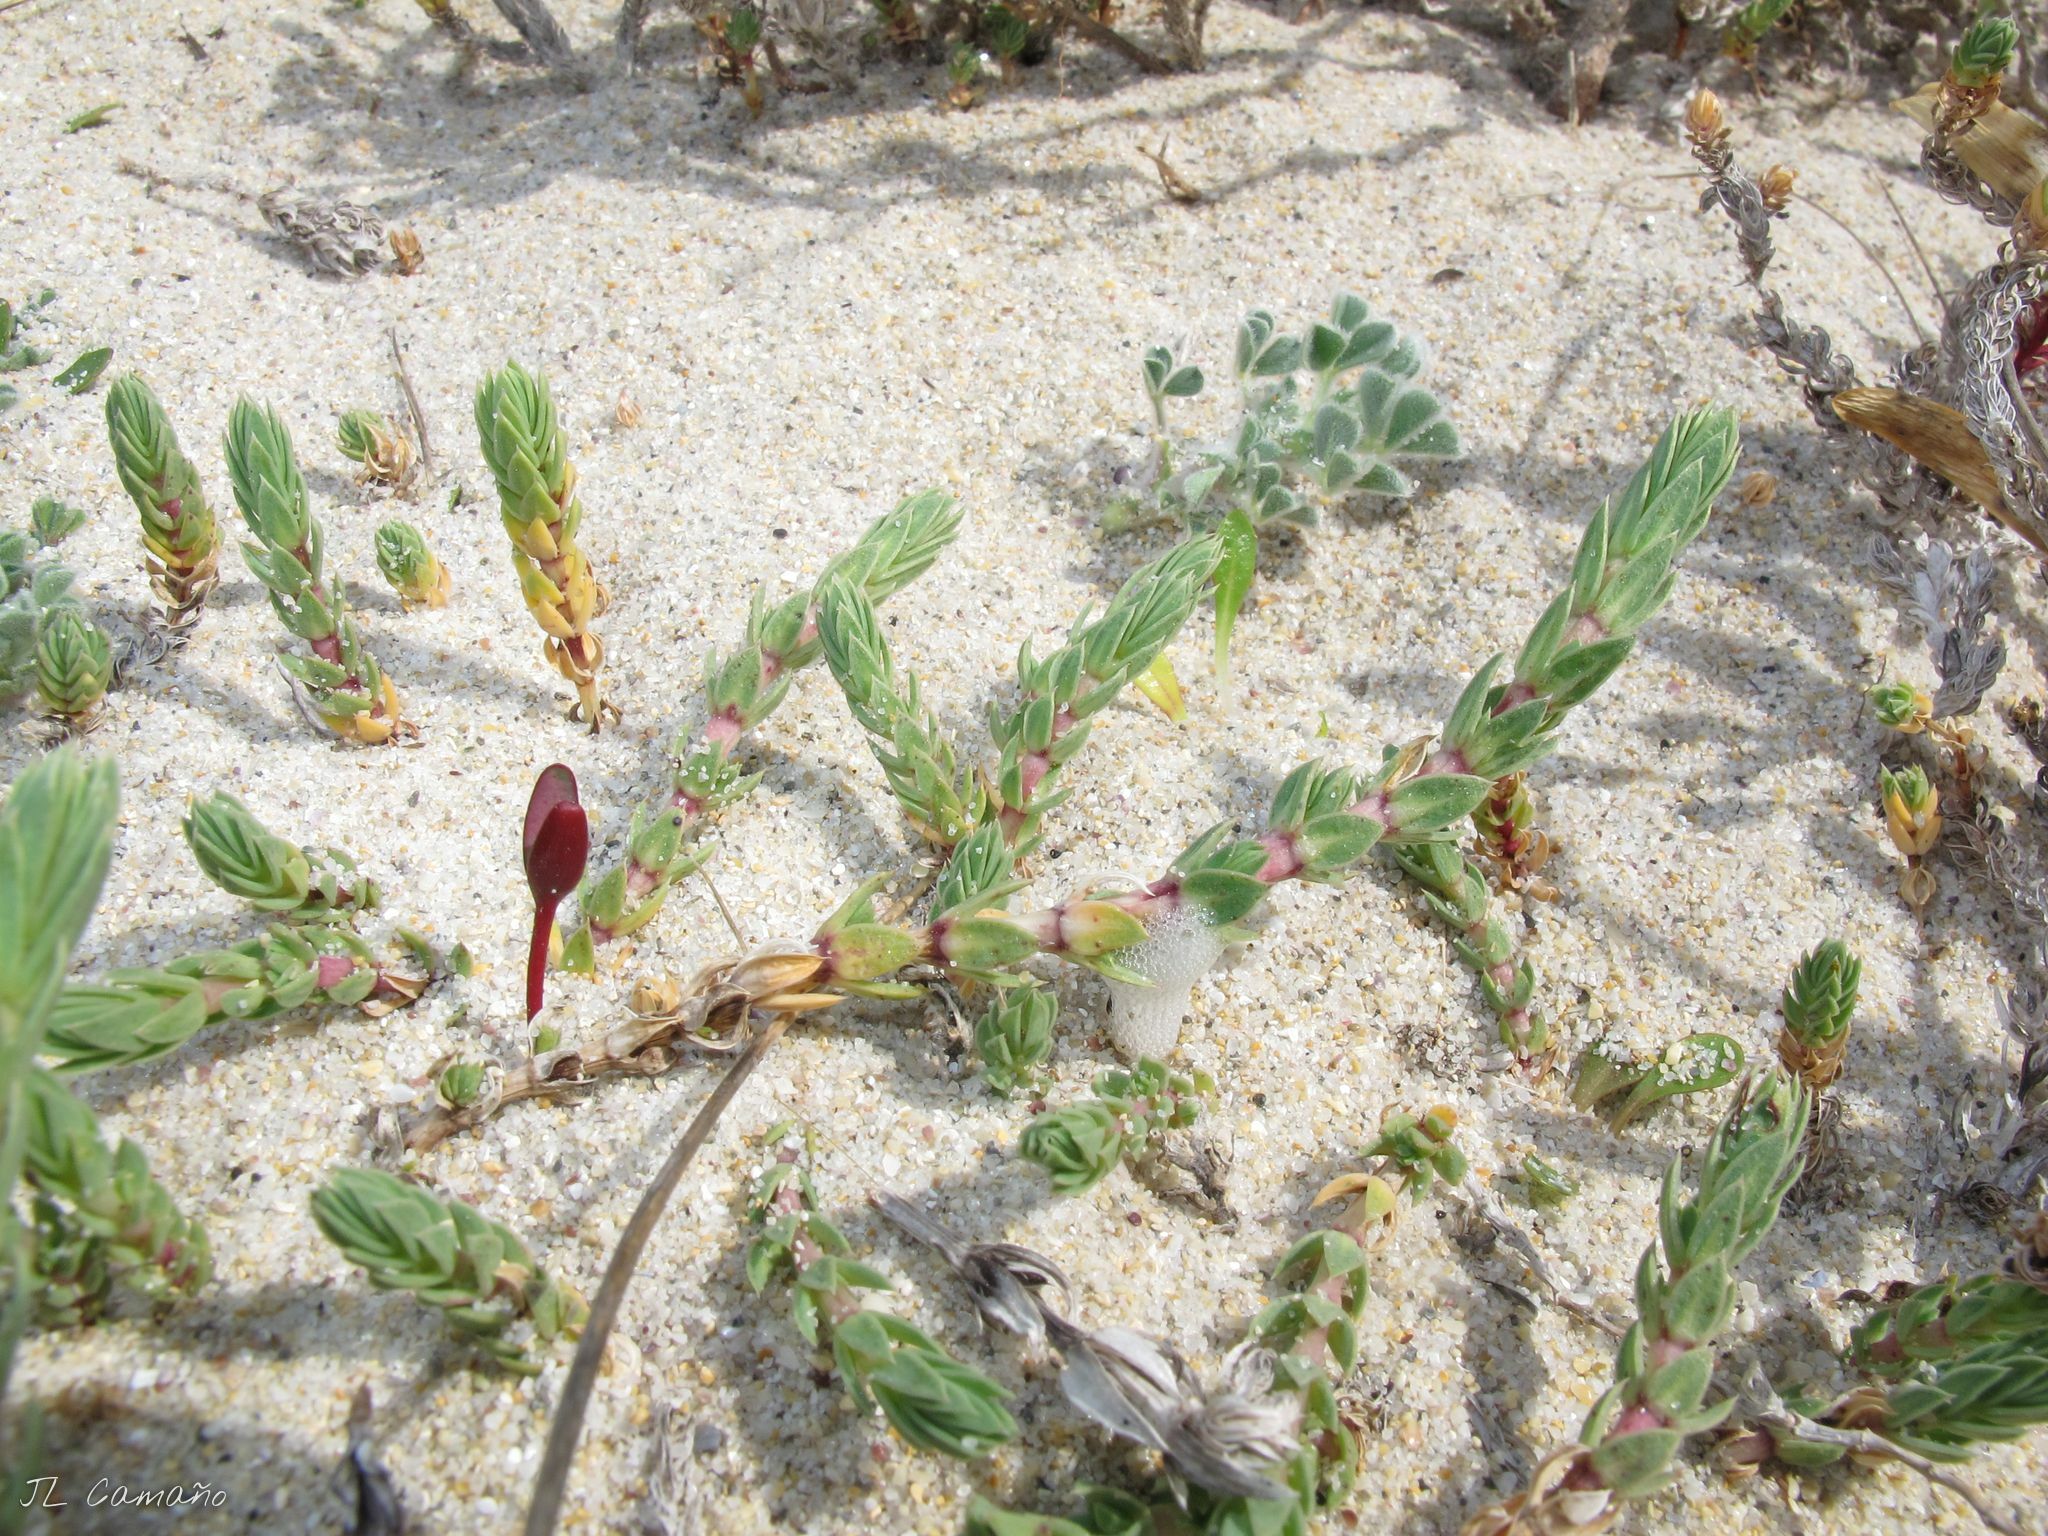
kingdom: Plantae
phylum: Tracheophyta
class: Magnoliopsida
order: Gentianales
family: Rubiaceae
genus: Crucianella
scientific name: Crucianella maritima
